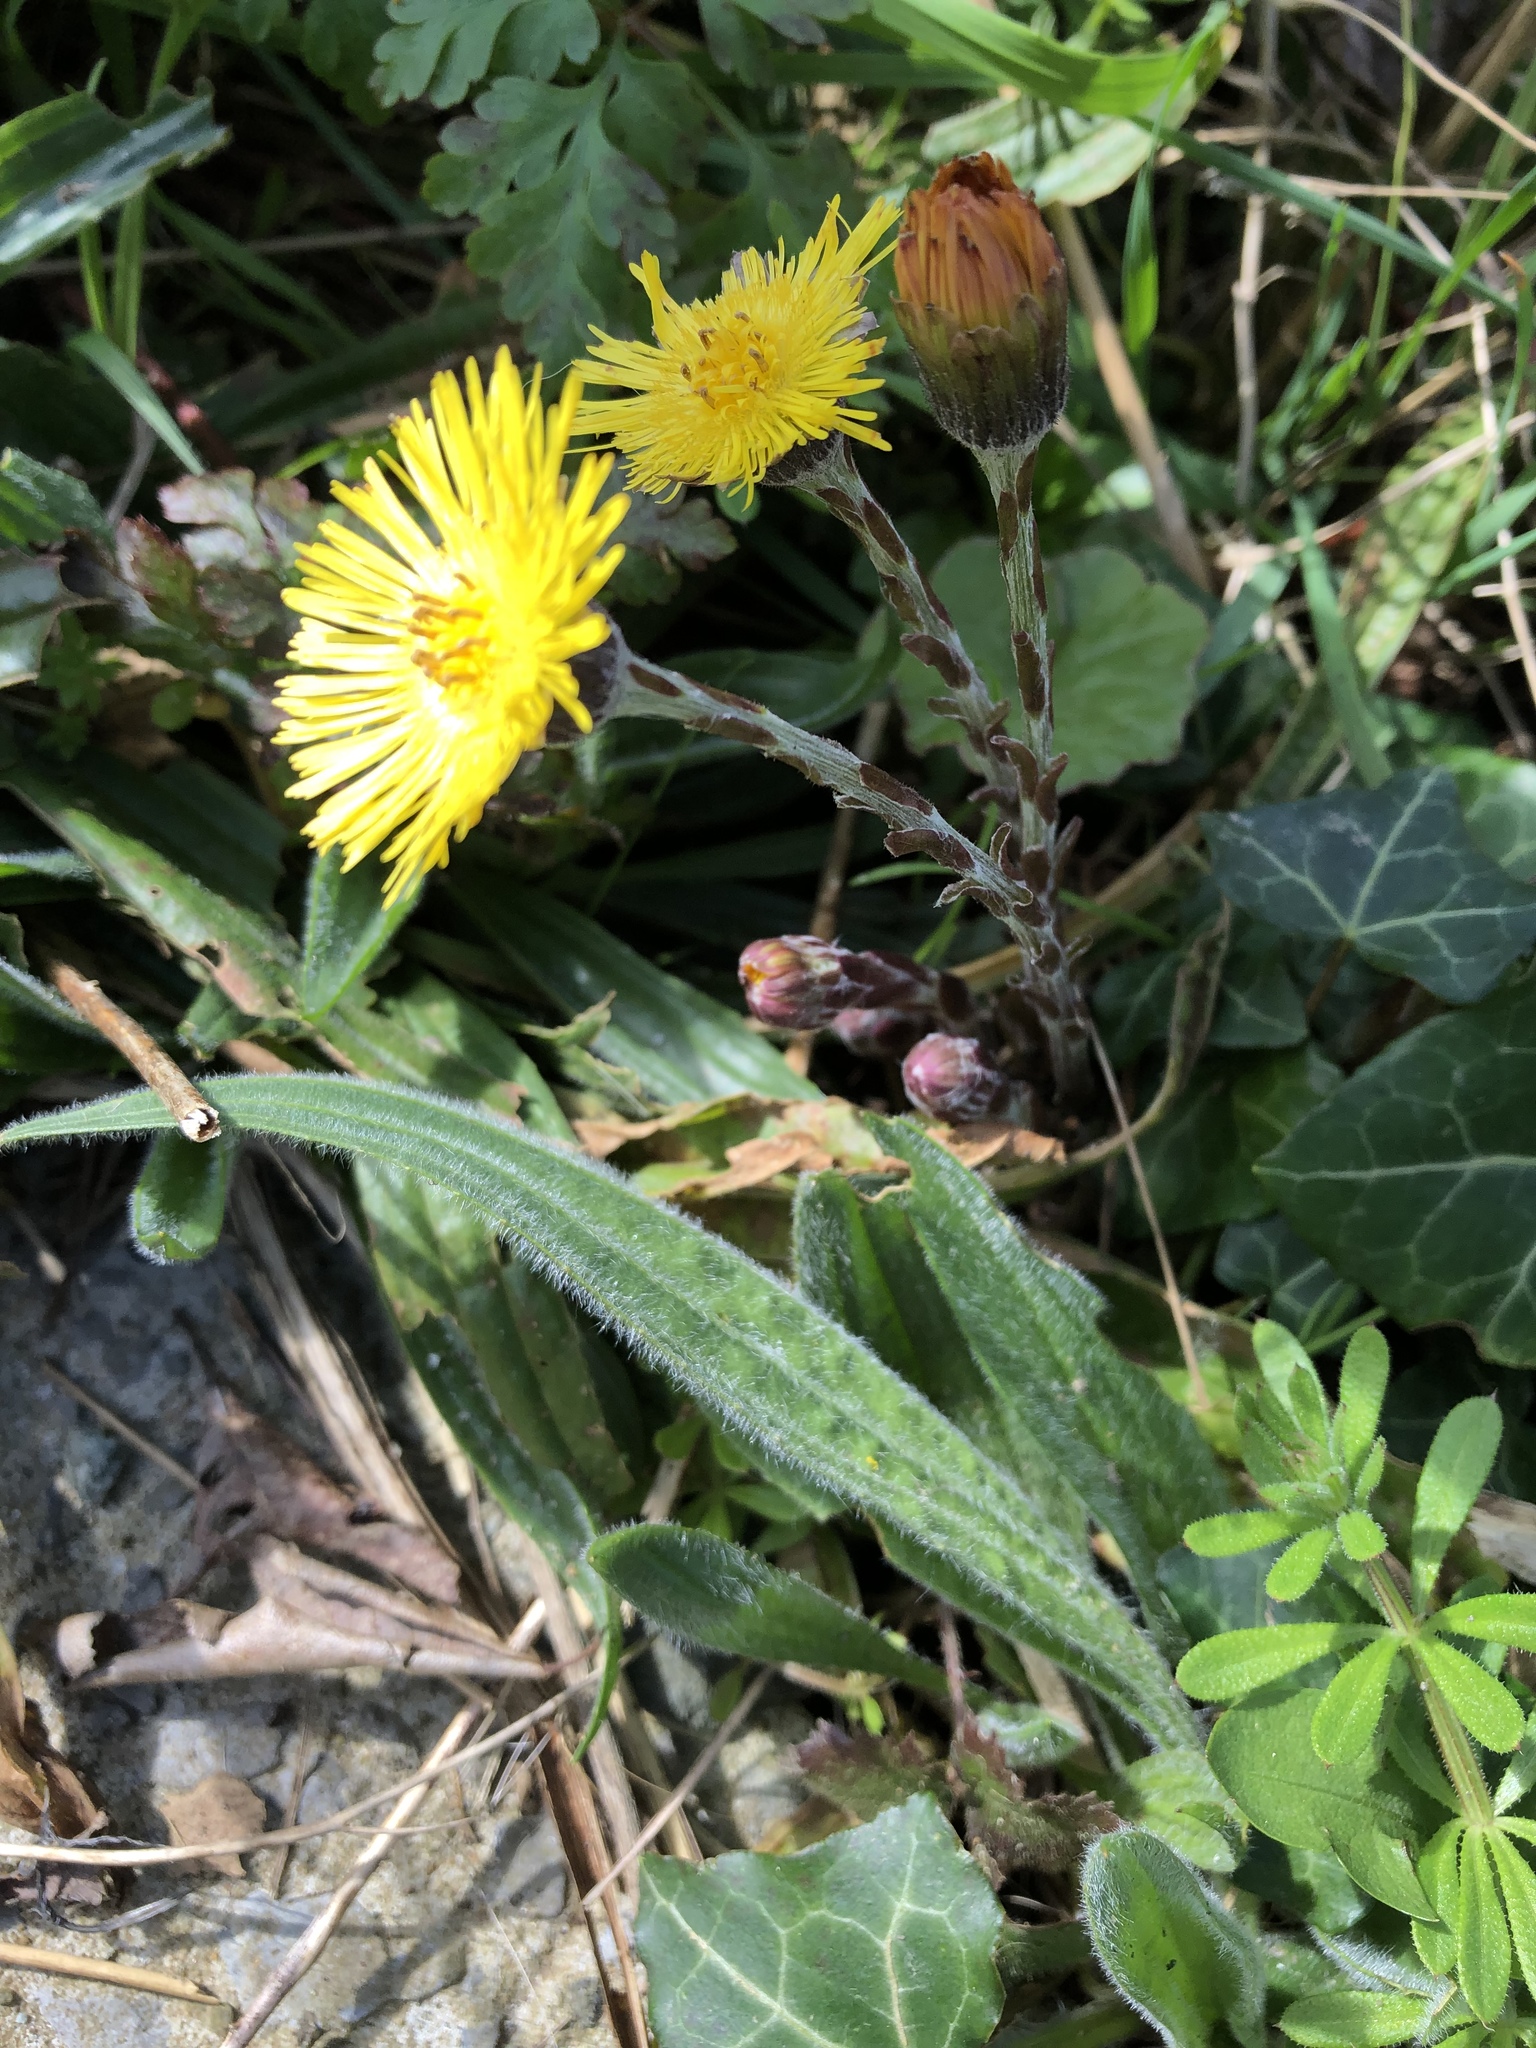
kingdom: Plantae
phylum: Tracheophyta
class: Magnoliopsida
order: Asterales
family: Asteraceae
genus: Tussilago
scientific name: Tussilago farfara
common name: Coltsfoot
